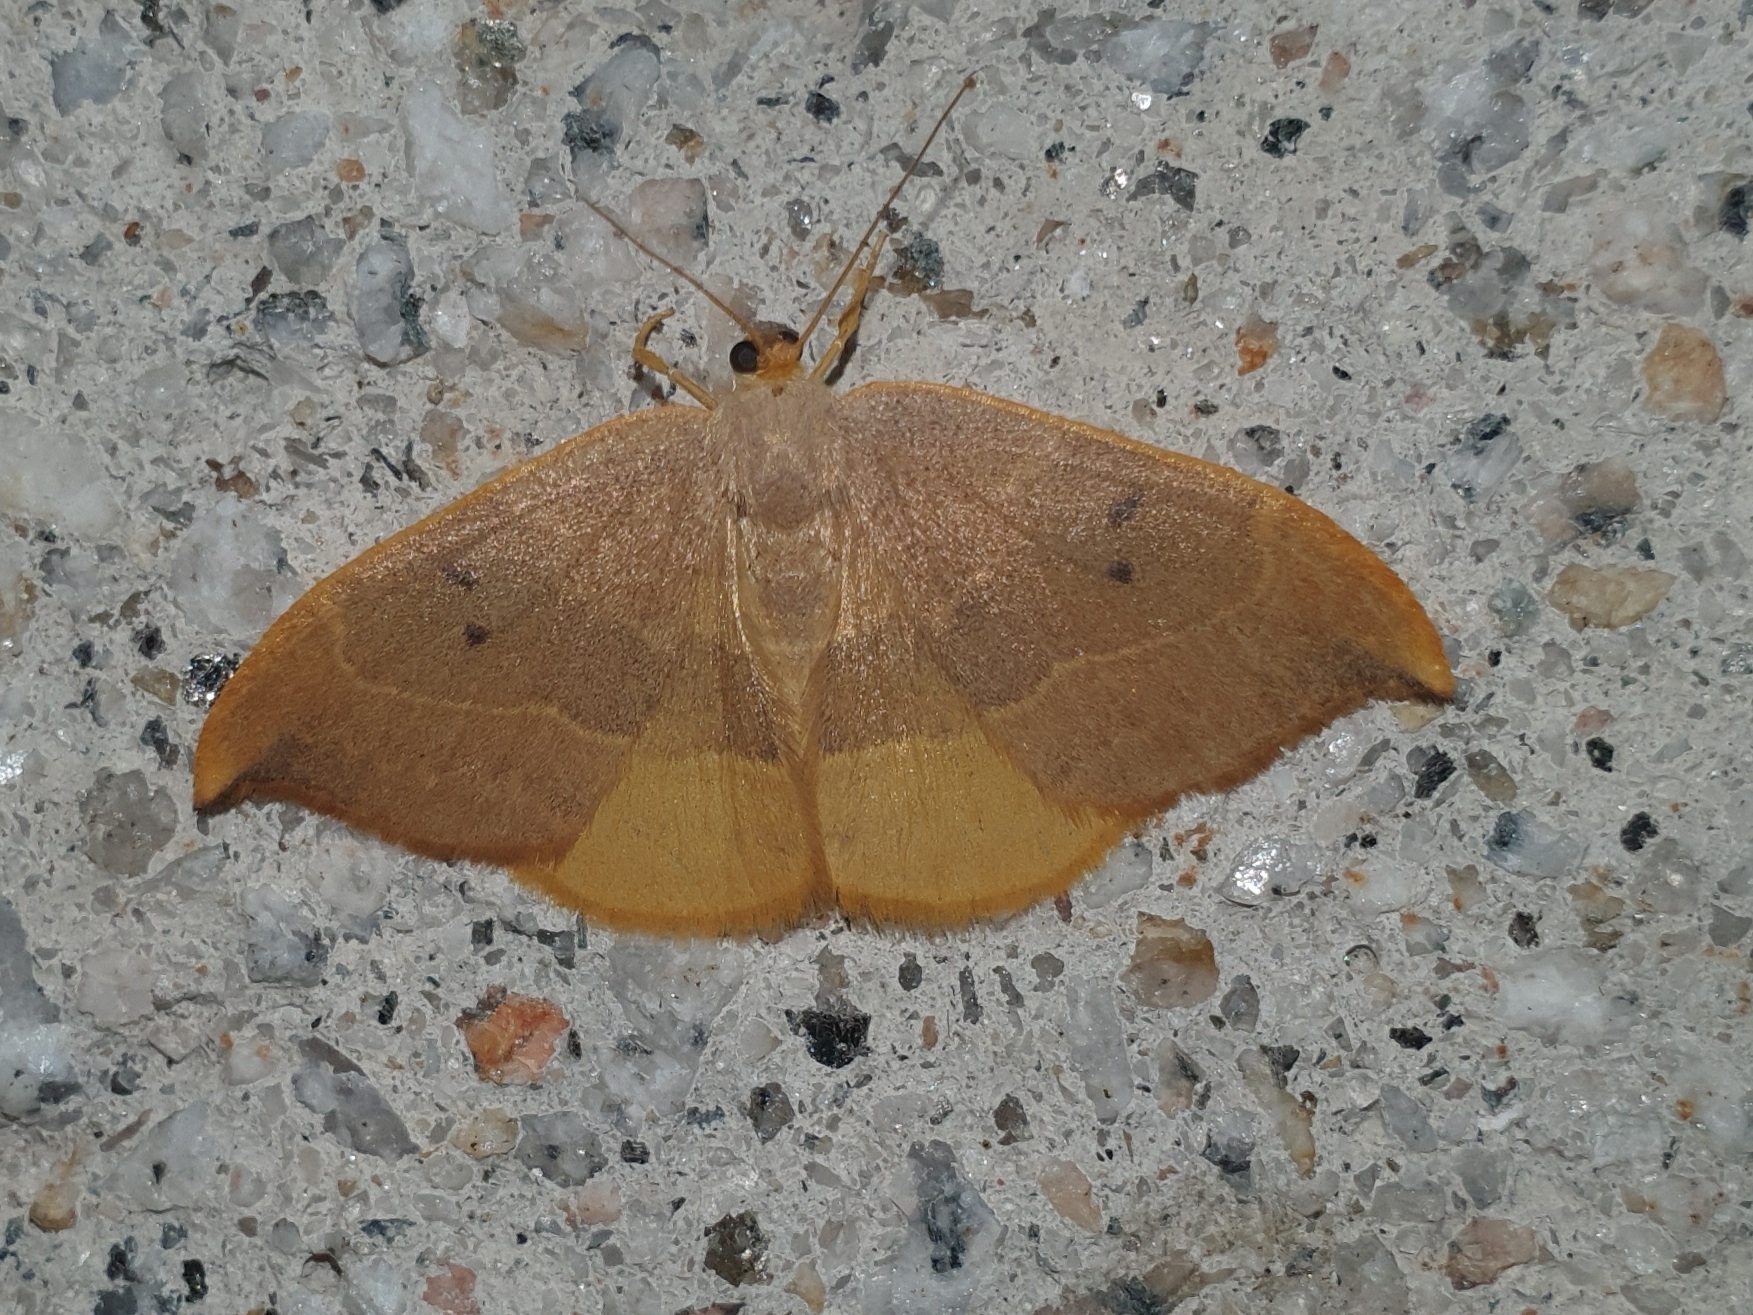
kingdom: Animalia
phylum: Arthropoda
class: Insecta
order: Lepidoptera
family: Drepanidae
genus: Watsonalla
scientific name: Watsonalla binaria
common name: Oak hook-tip
